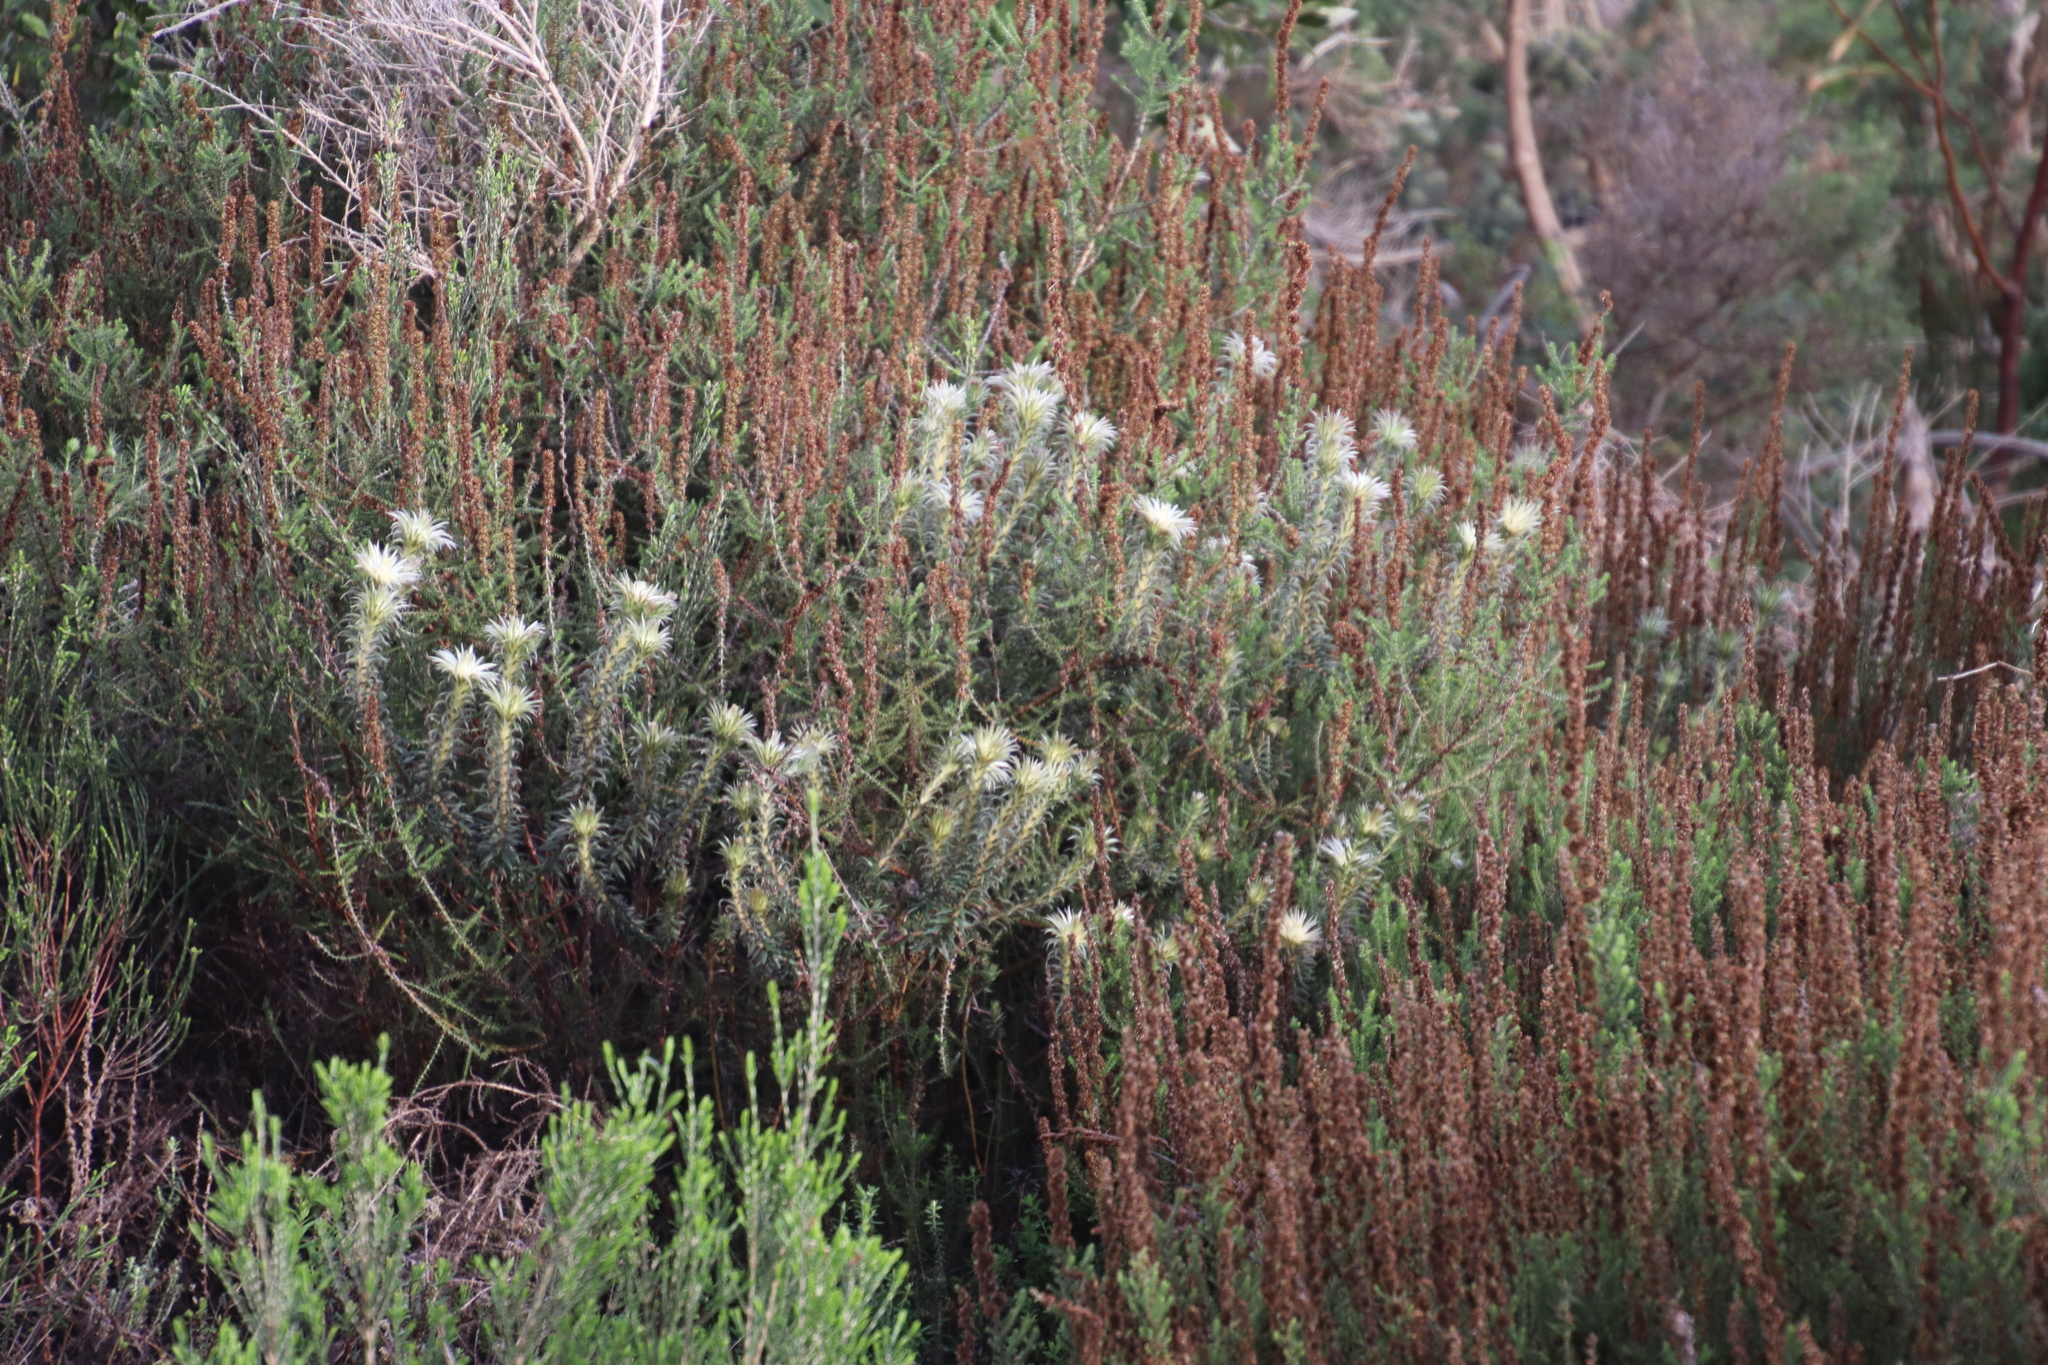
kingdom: Plantae
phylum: Tracheophyta
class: Magnoliopsida
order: Rosales
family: Rhamnaceae
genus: Phylica
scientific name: Phylica pubescens
